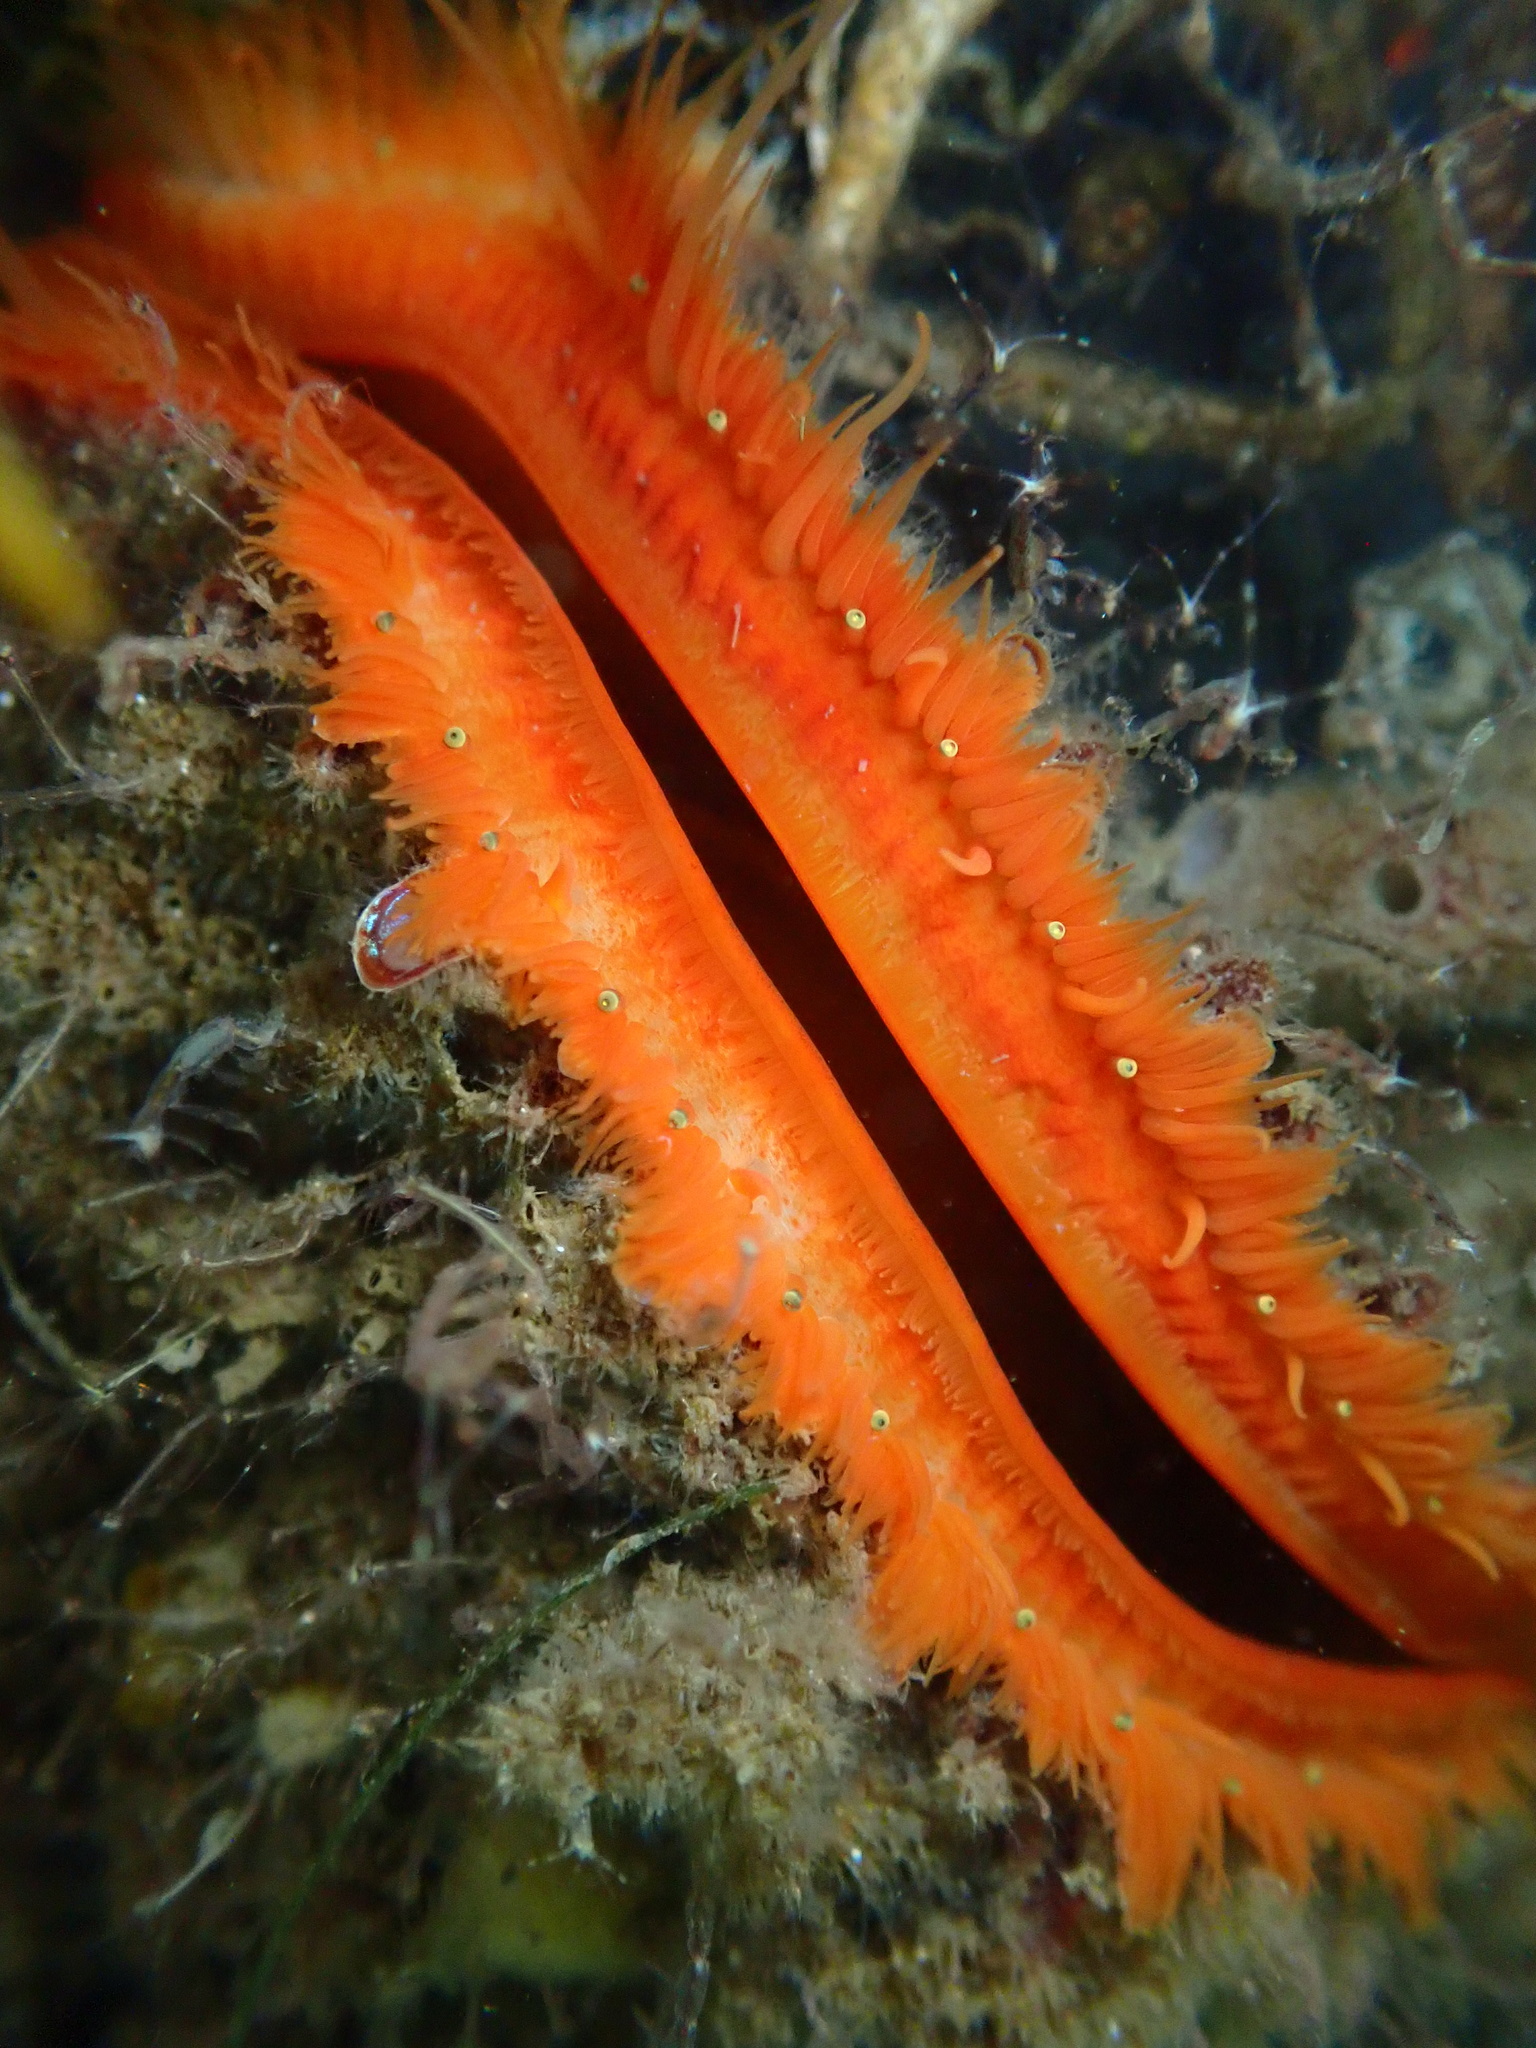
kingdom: Animalia
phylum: Mollusca
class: Bivalvia
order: Pectinida
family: Pectinidae
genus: Crassadoma
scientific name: Crassadoma gigantea
